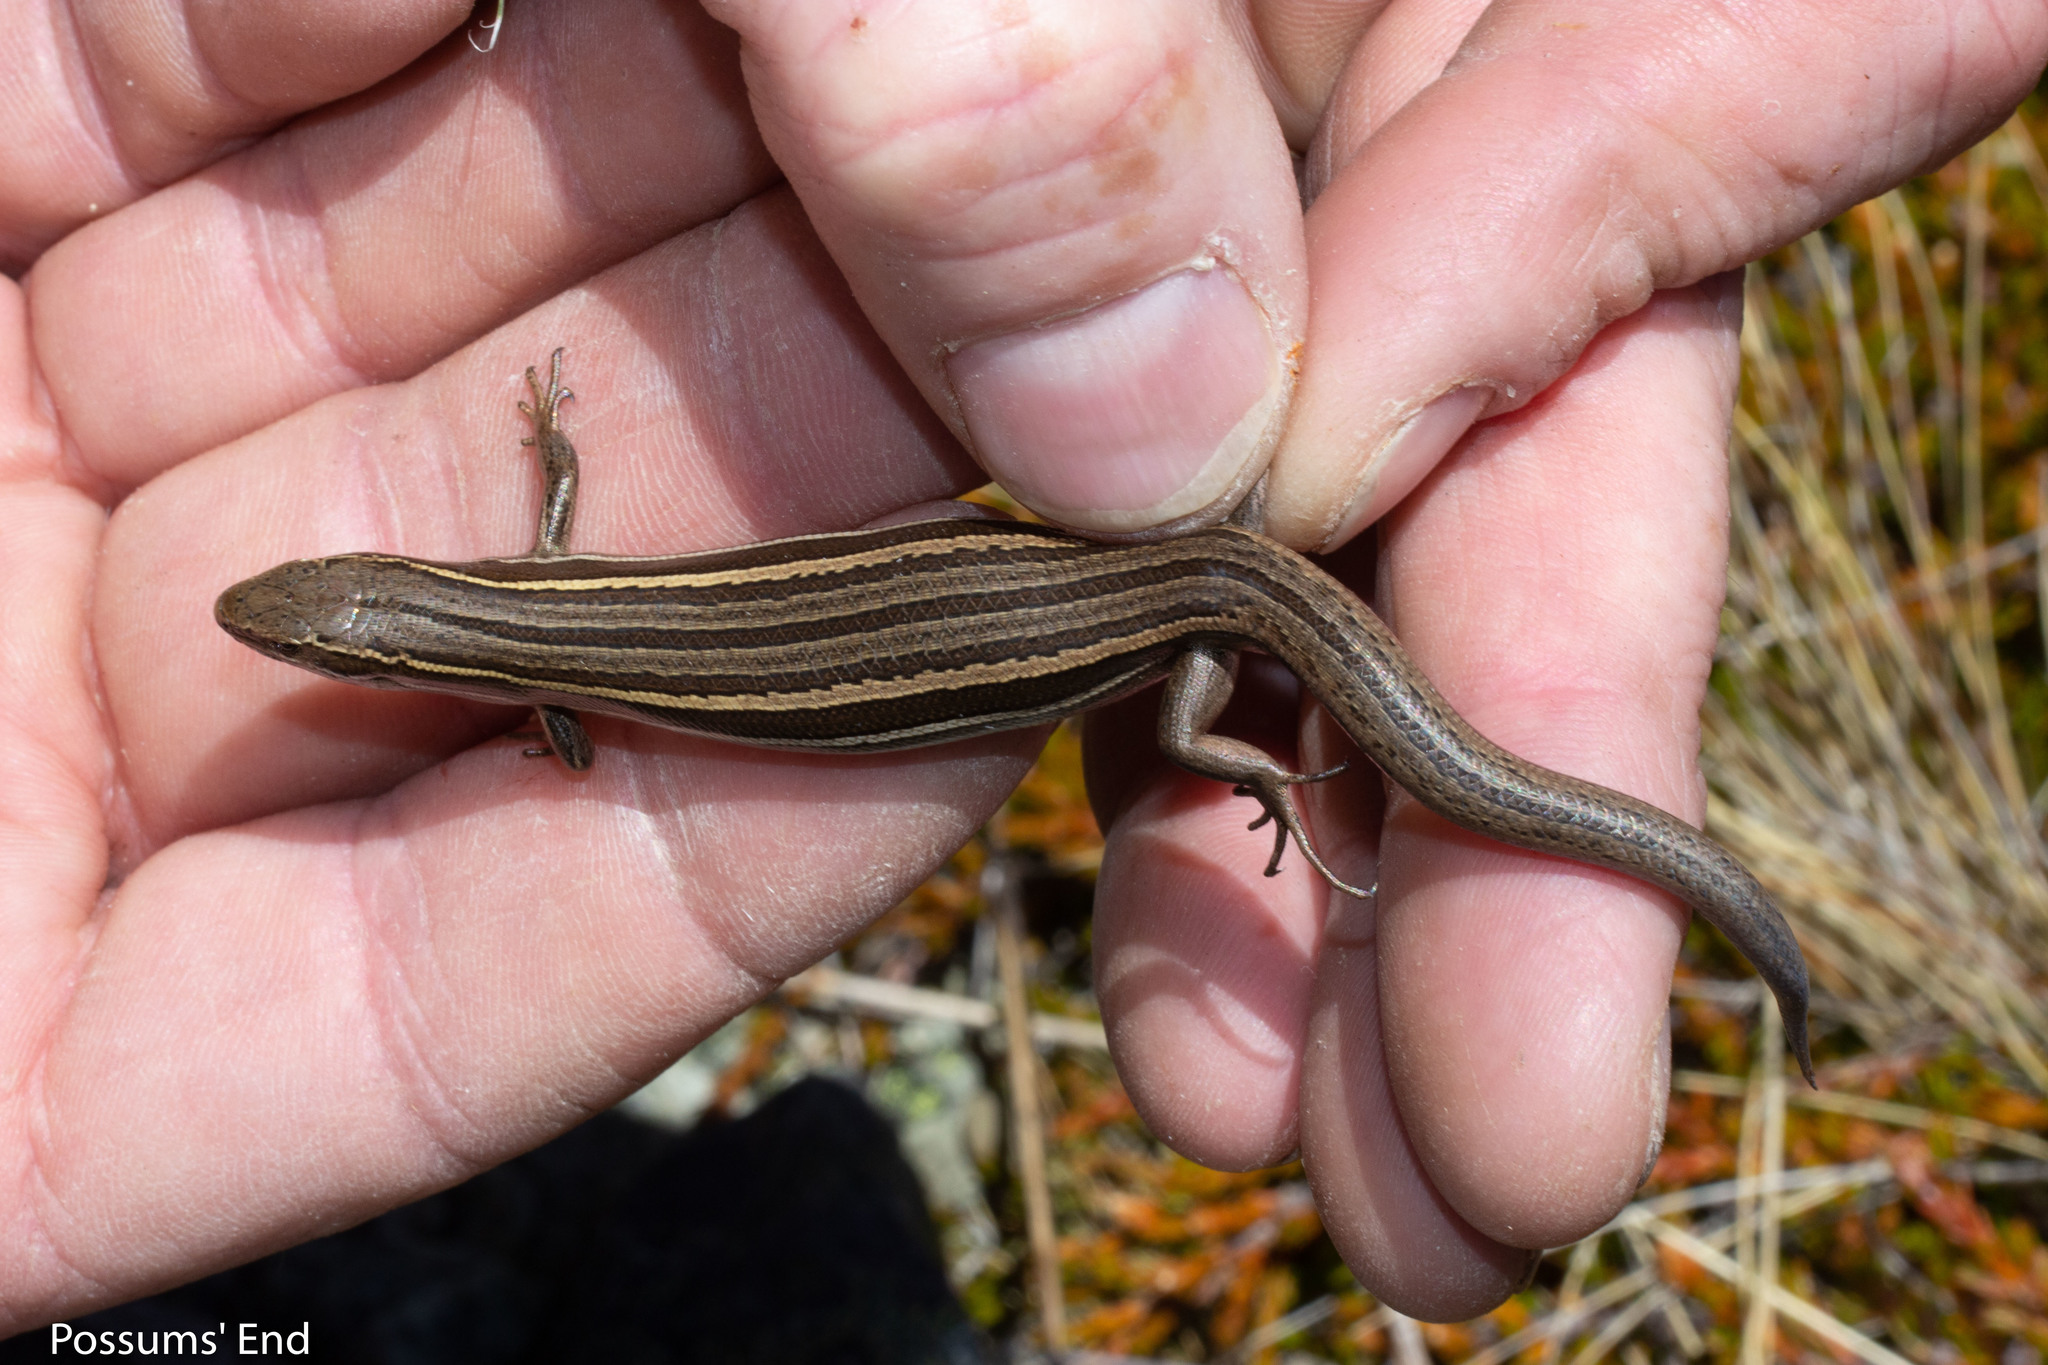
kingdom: Animalia
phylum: Chordata
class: Squamata
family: Scincidae
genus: Oligosoma
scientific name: Oligosoma maccanni
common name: Mccann’s skink
